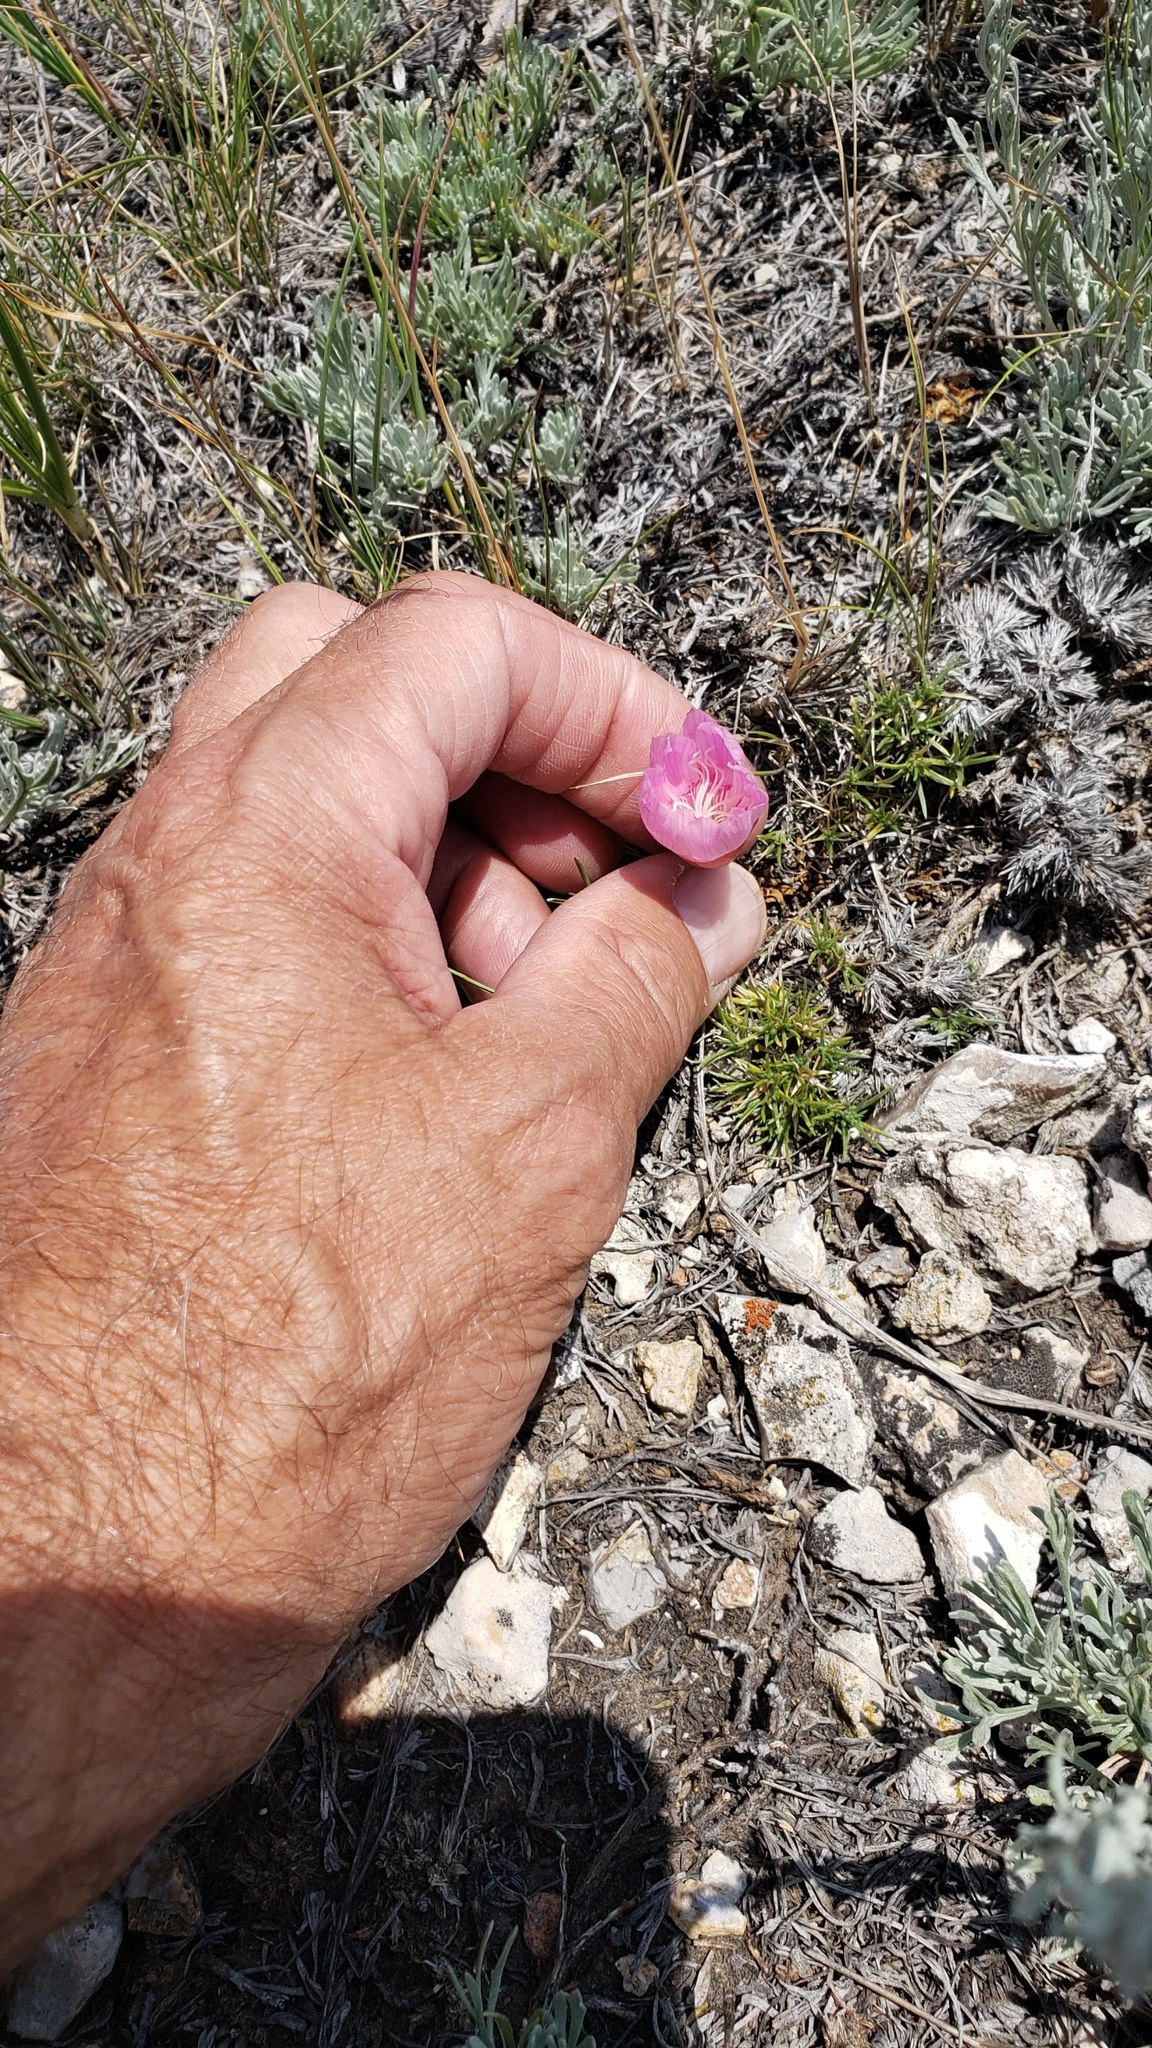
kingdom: Plantae
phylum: Tracheophyta
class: Magnoliopsida
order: Caryophyllales
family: Montiaceae
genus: Lewisia
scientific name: Lewisia rediviva
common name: Bitter-root
